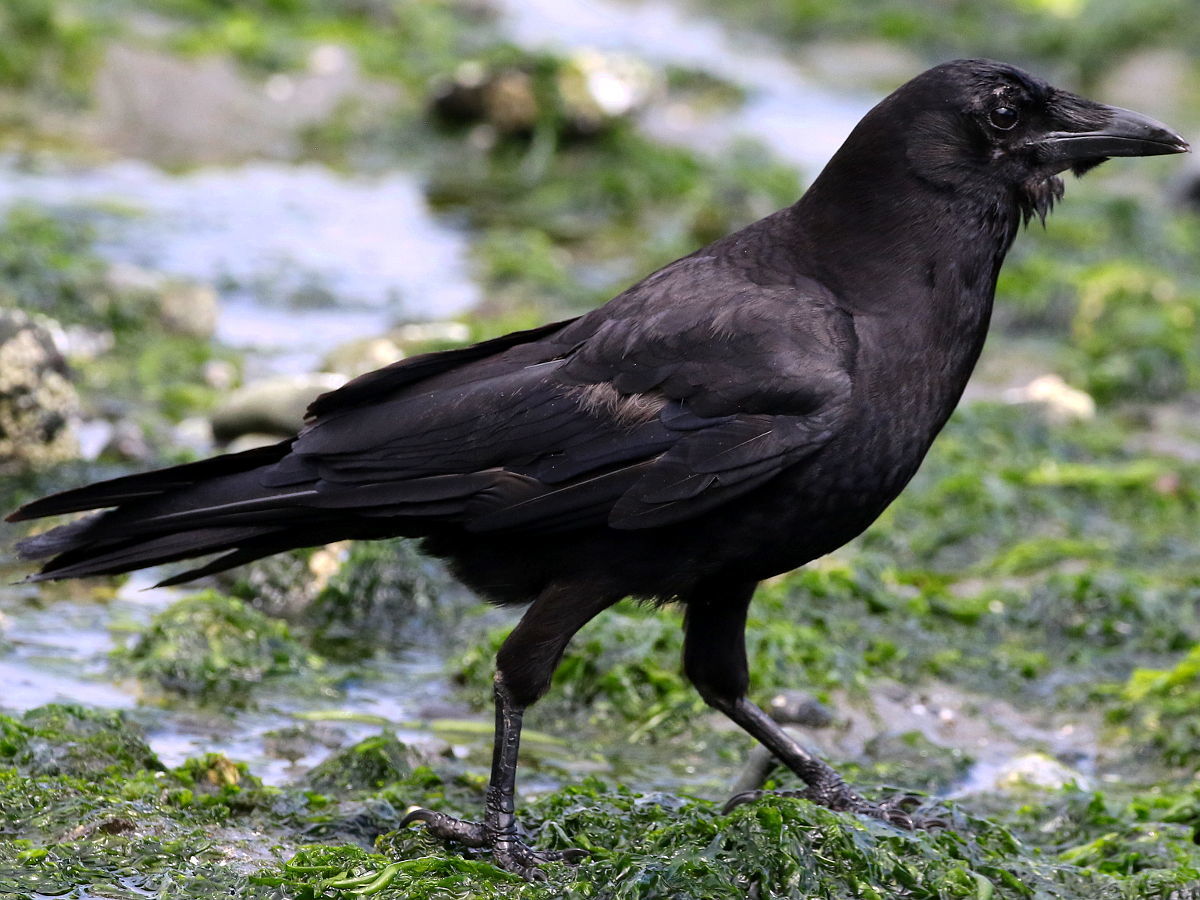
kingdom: Animalia
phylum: Chordata
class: Aves
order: Passeriformes
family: Corvidae
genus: Corvus
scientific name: Corvus brachyrhynchos
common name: American crow
